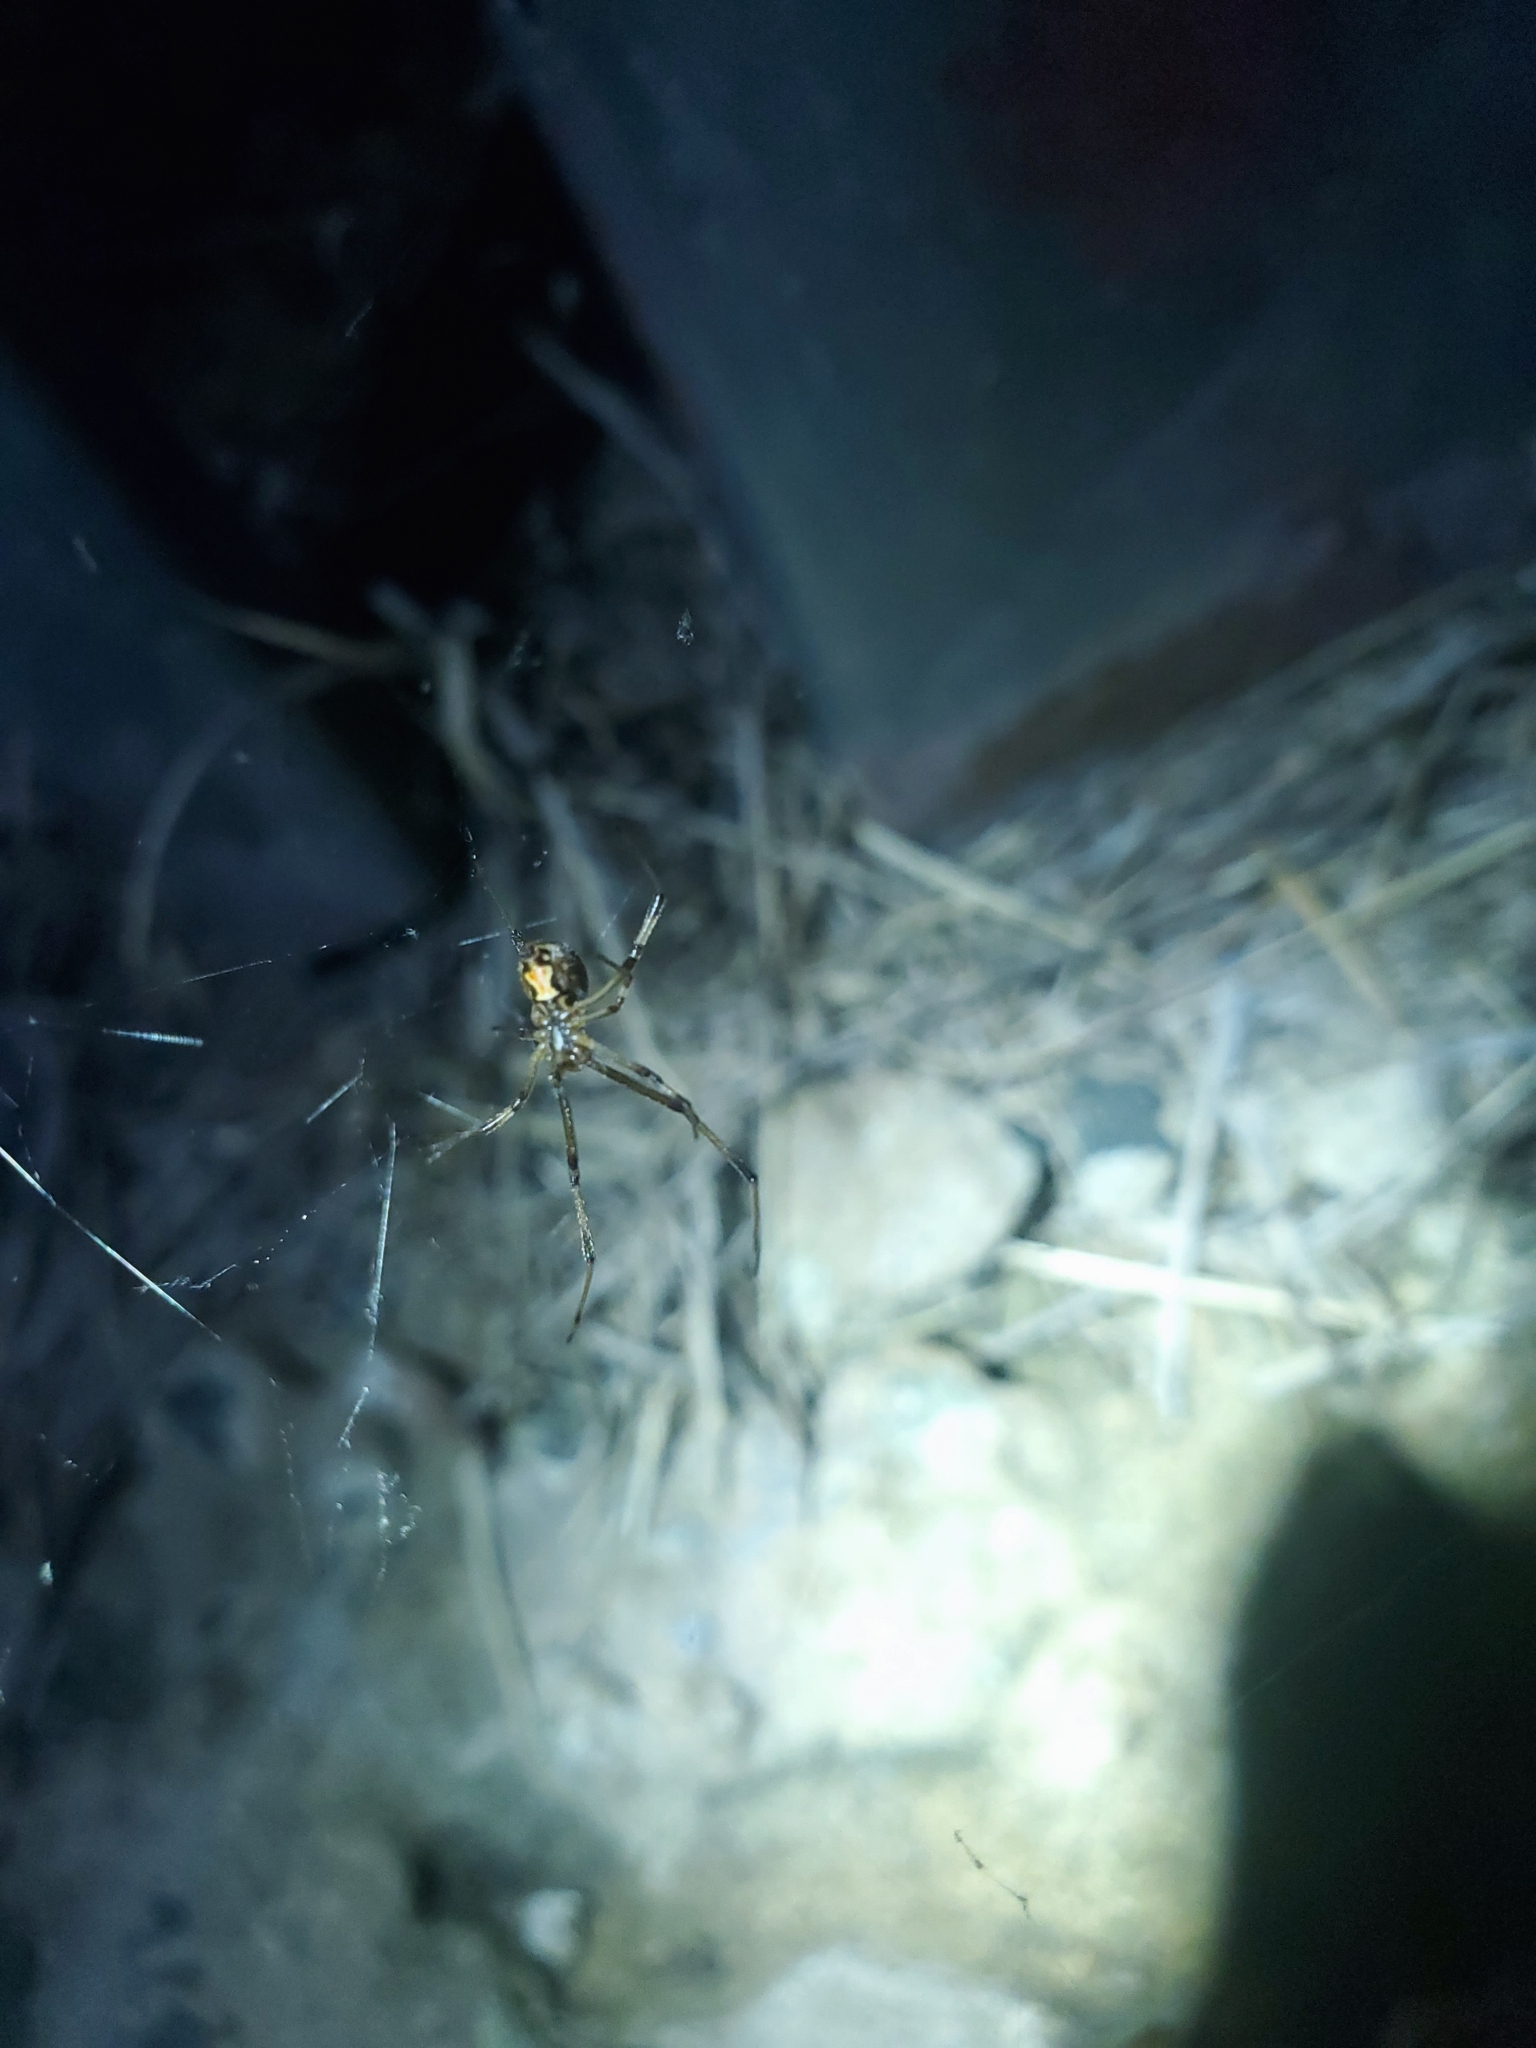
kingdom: Animalia
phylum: Arthropoda
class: Arachnida
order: Araneae
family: Theridiidae
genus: Latrodectus
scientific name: Latrodectus geometricus
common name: Brown widow spider
